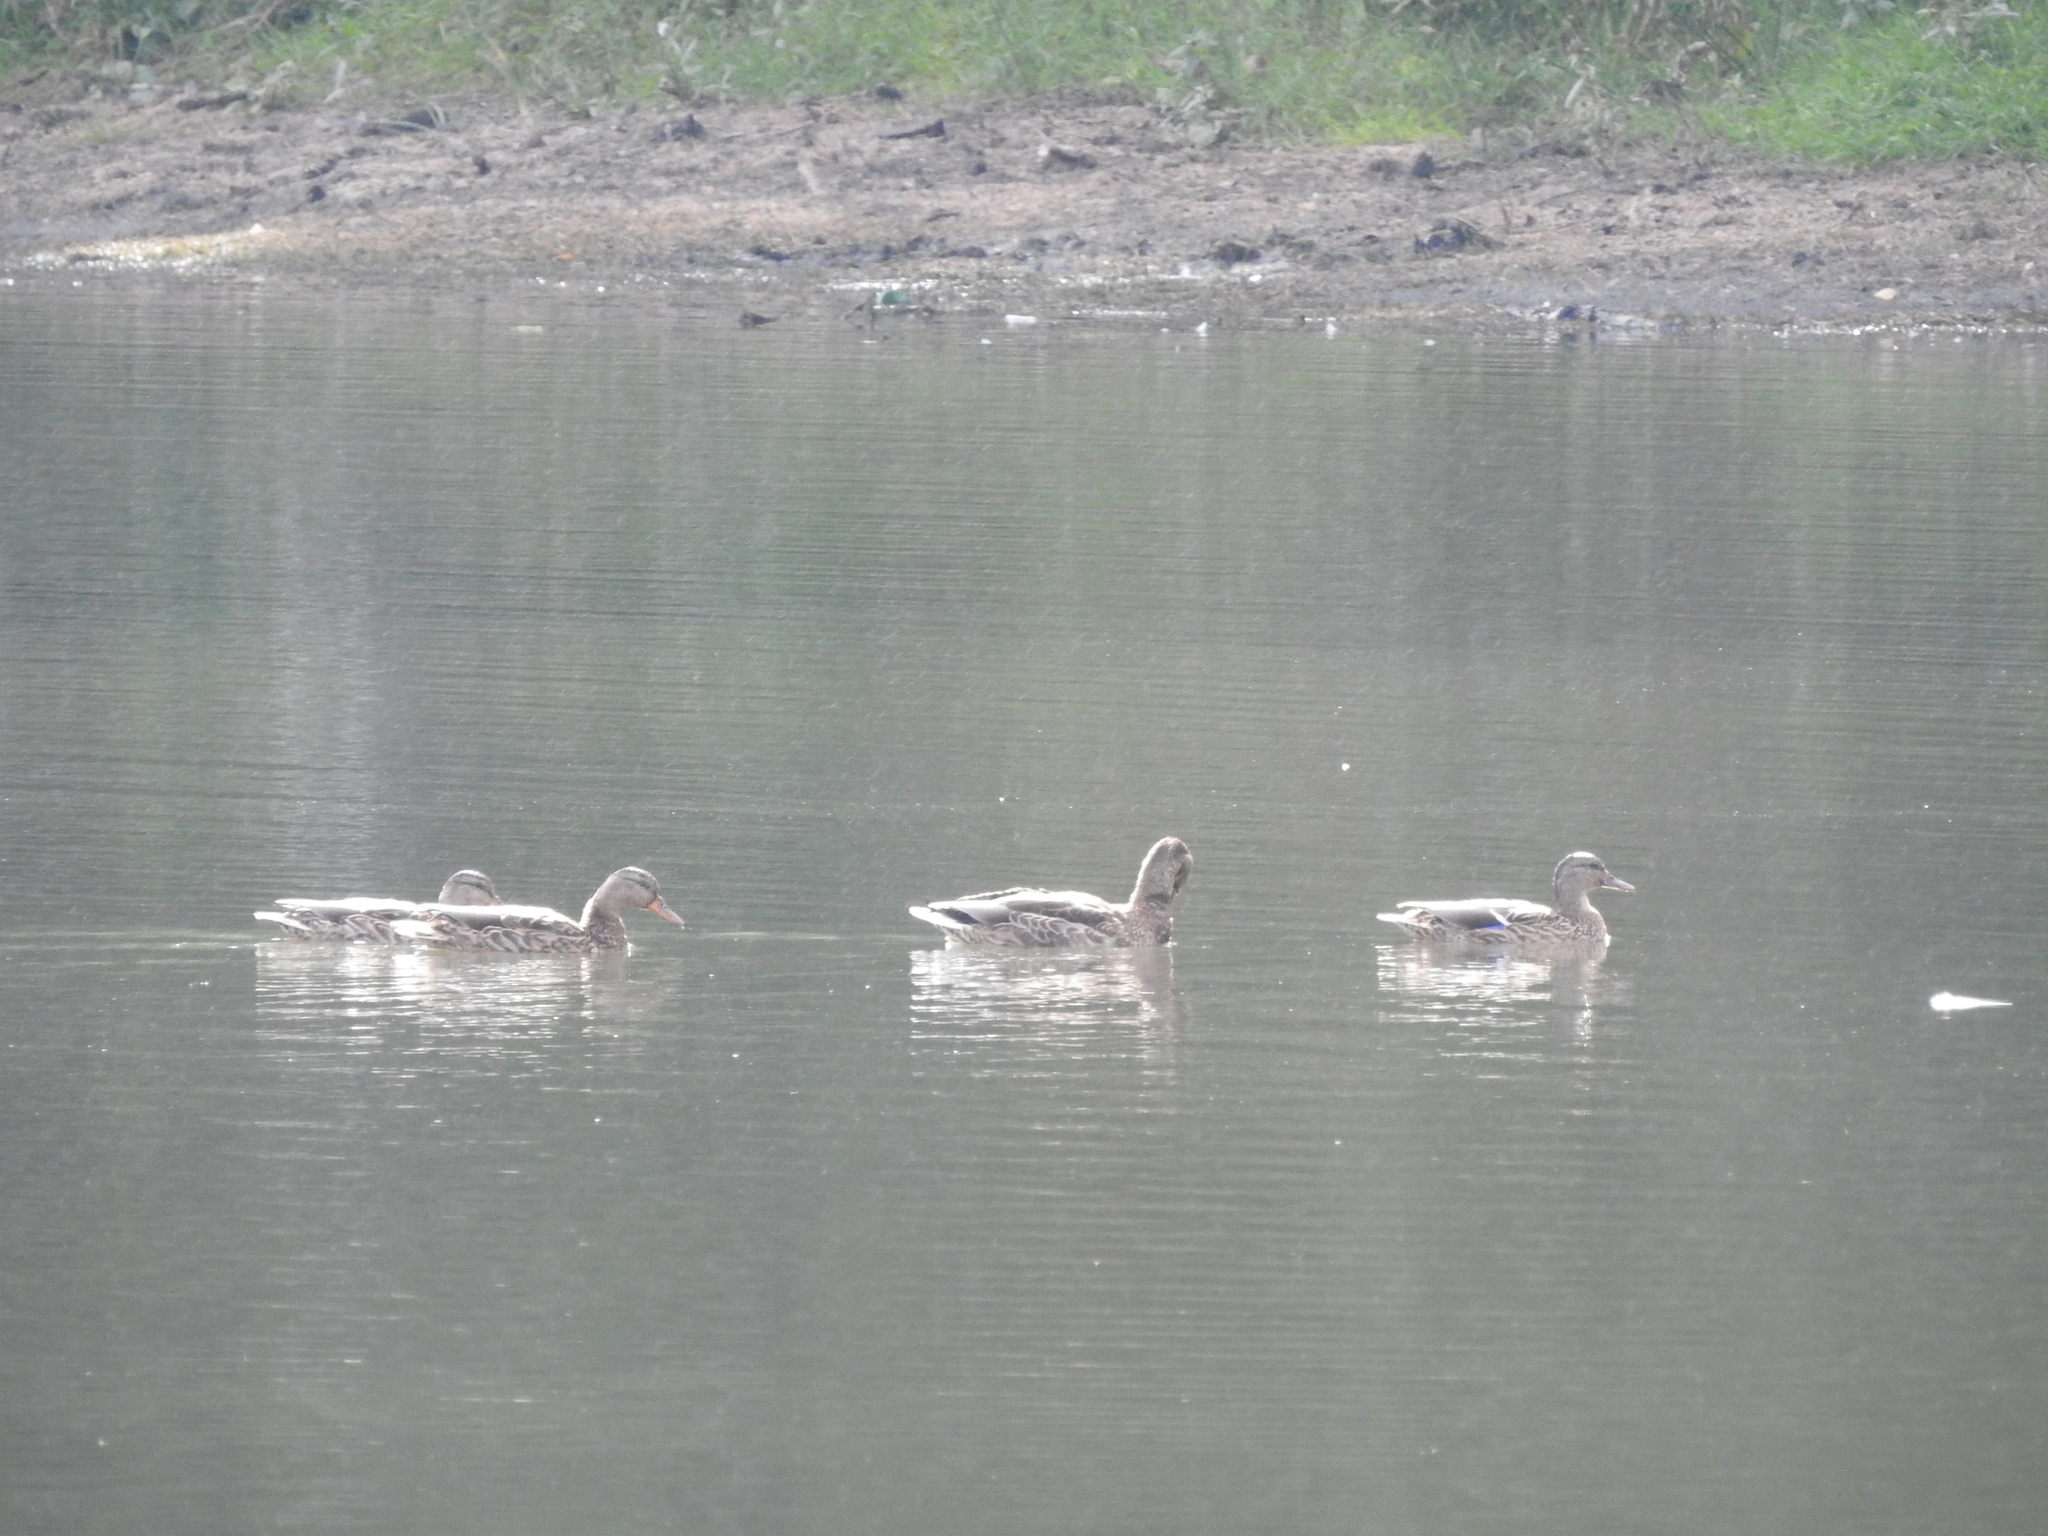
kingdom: Animalia
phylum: Chordata
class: Aves
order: Anseriformes
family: Anatidae
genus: Anas
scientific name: Anas platyrhynchos
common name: Mallard
